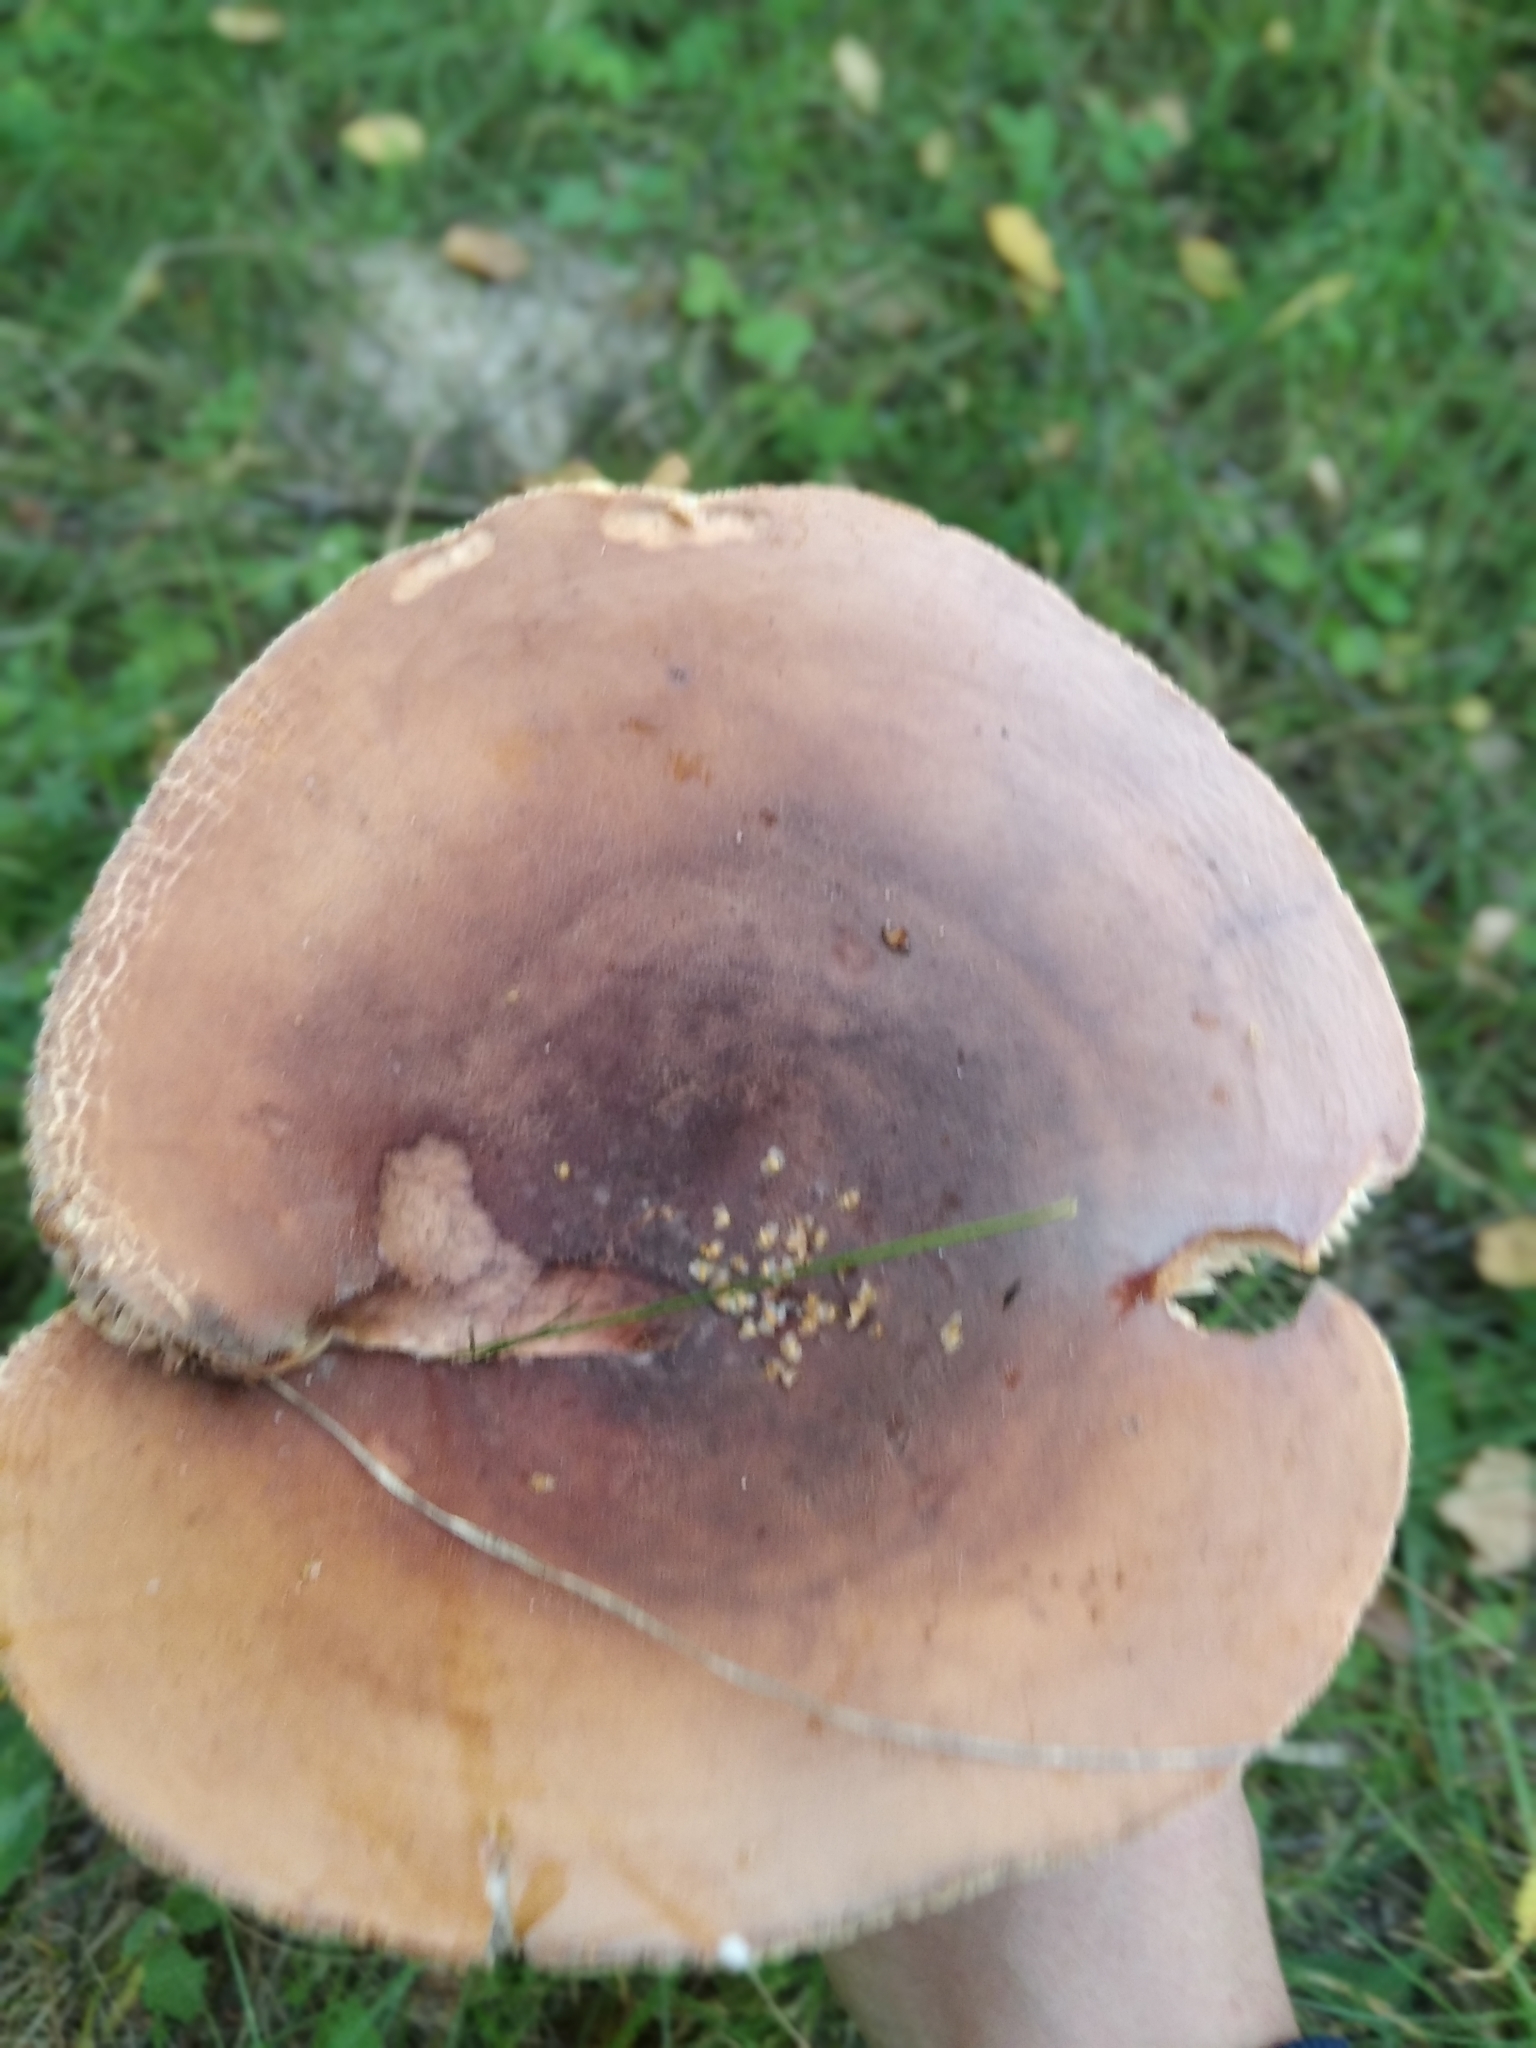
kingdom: Fungi
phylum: Basidiomycota
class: Agaricomycetes
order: Russulales
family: Russulaceae
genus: Lactifluus
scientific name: Lactifluus volemus
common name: Fishy milkcap
